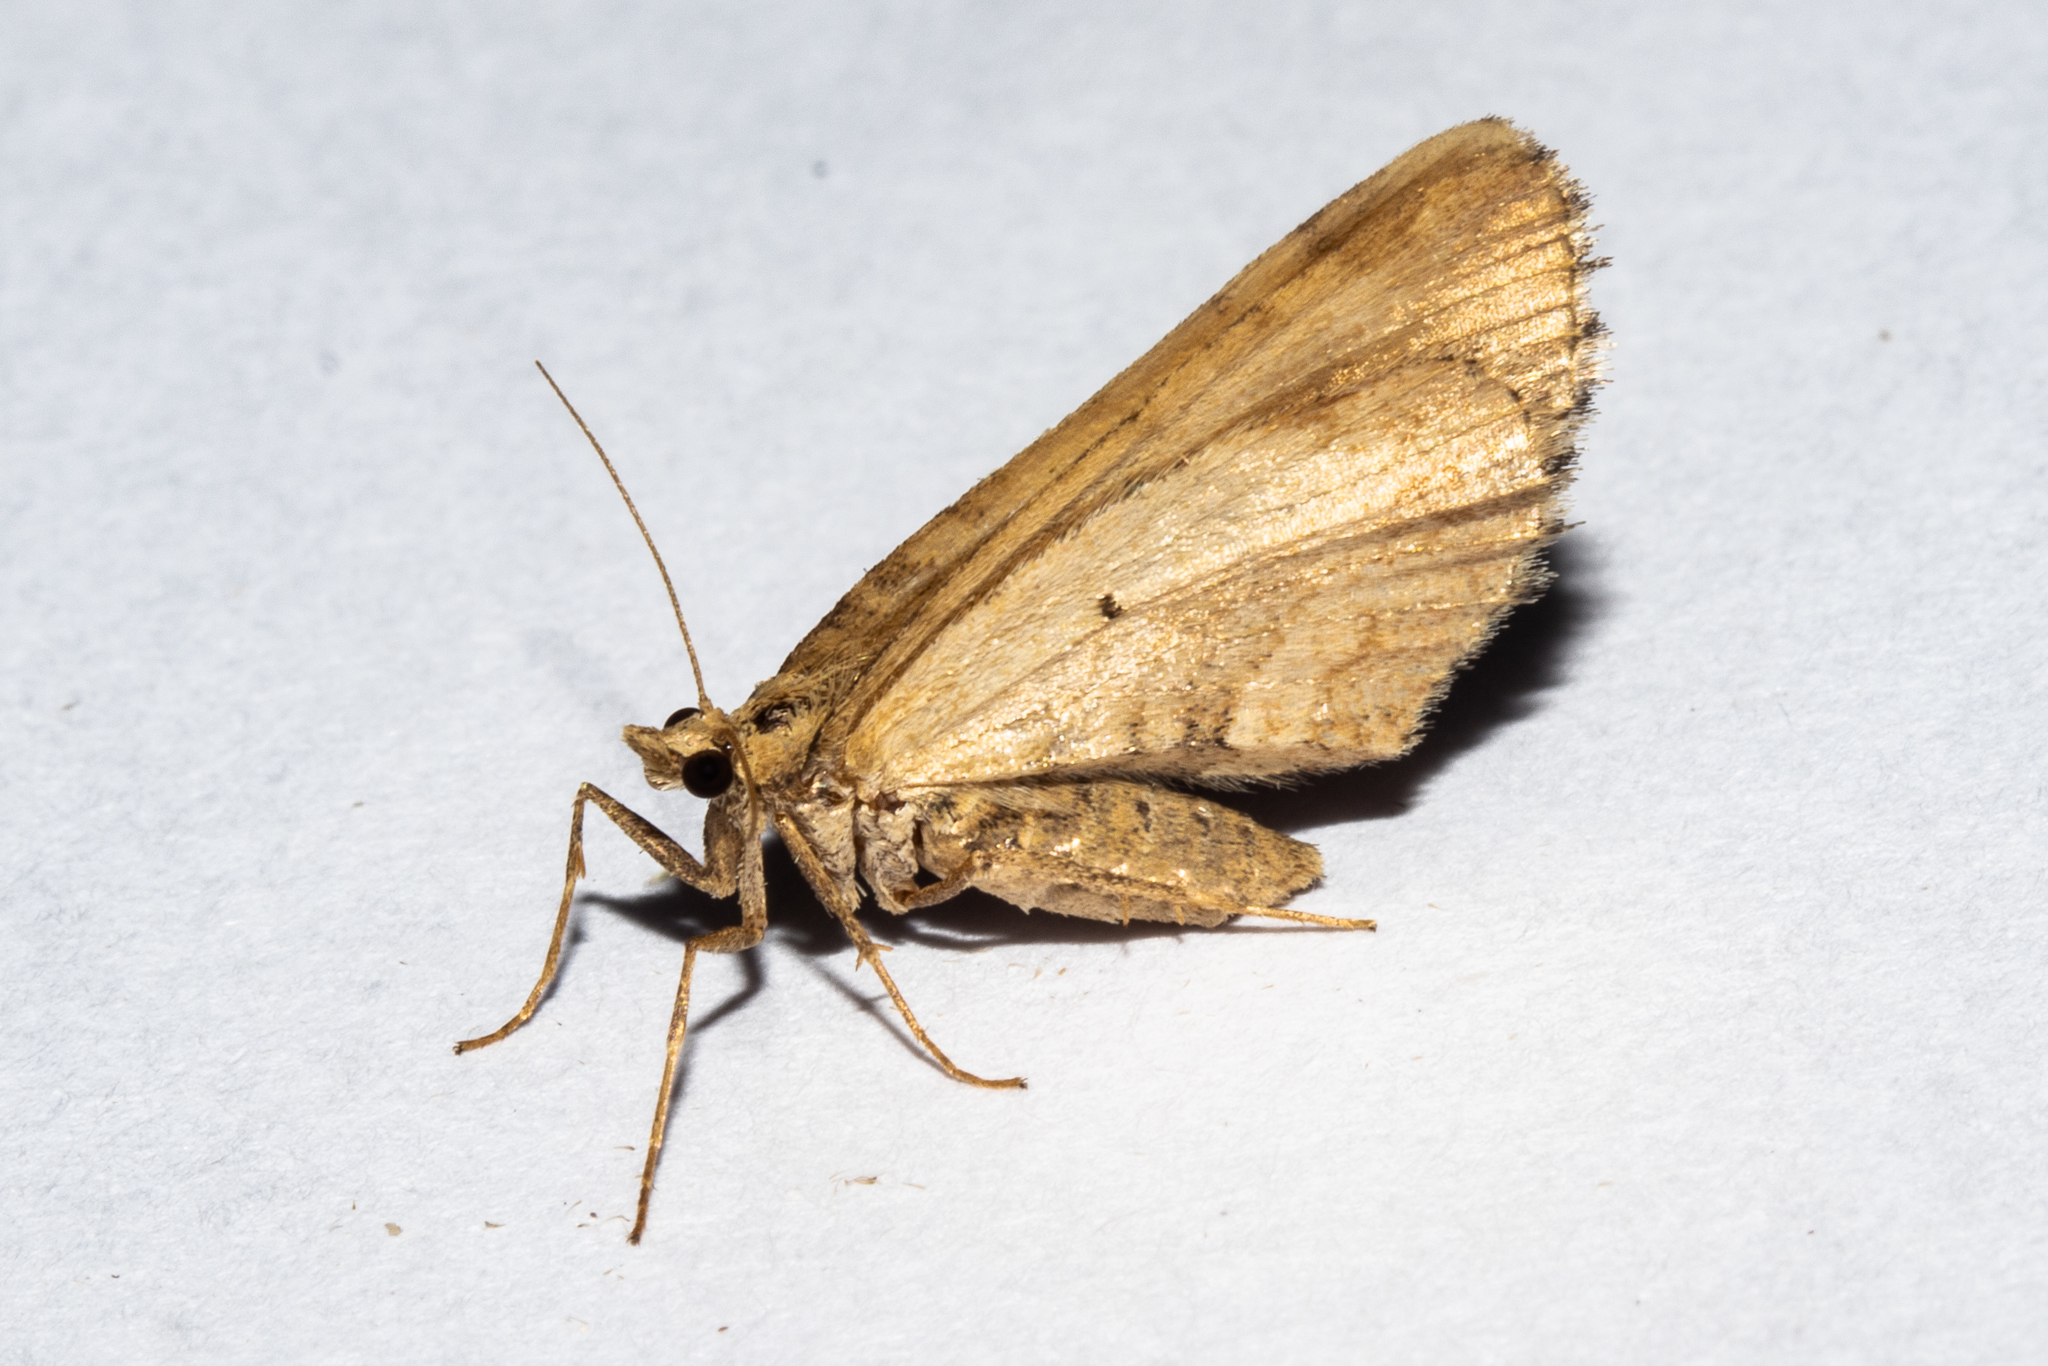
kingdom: Animalia
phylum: Arthropoda
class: Insecta
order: Lepidoptera
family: Geometridae
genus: Asaphodes
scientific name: Asaphodes aegrota
